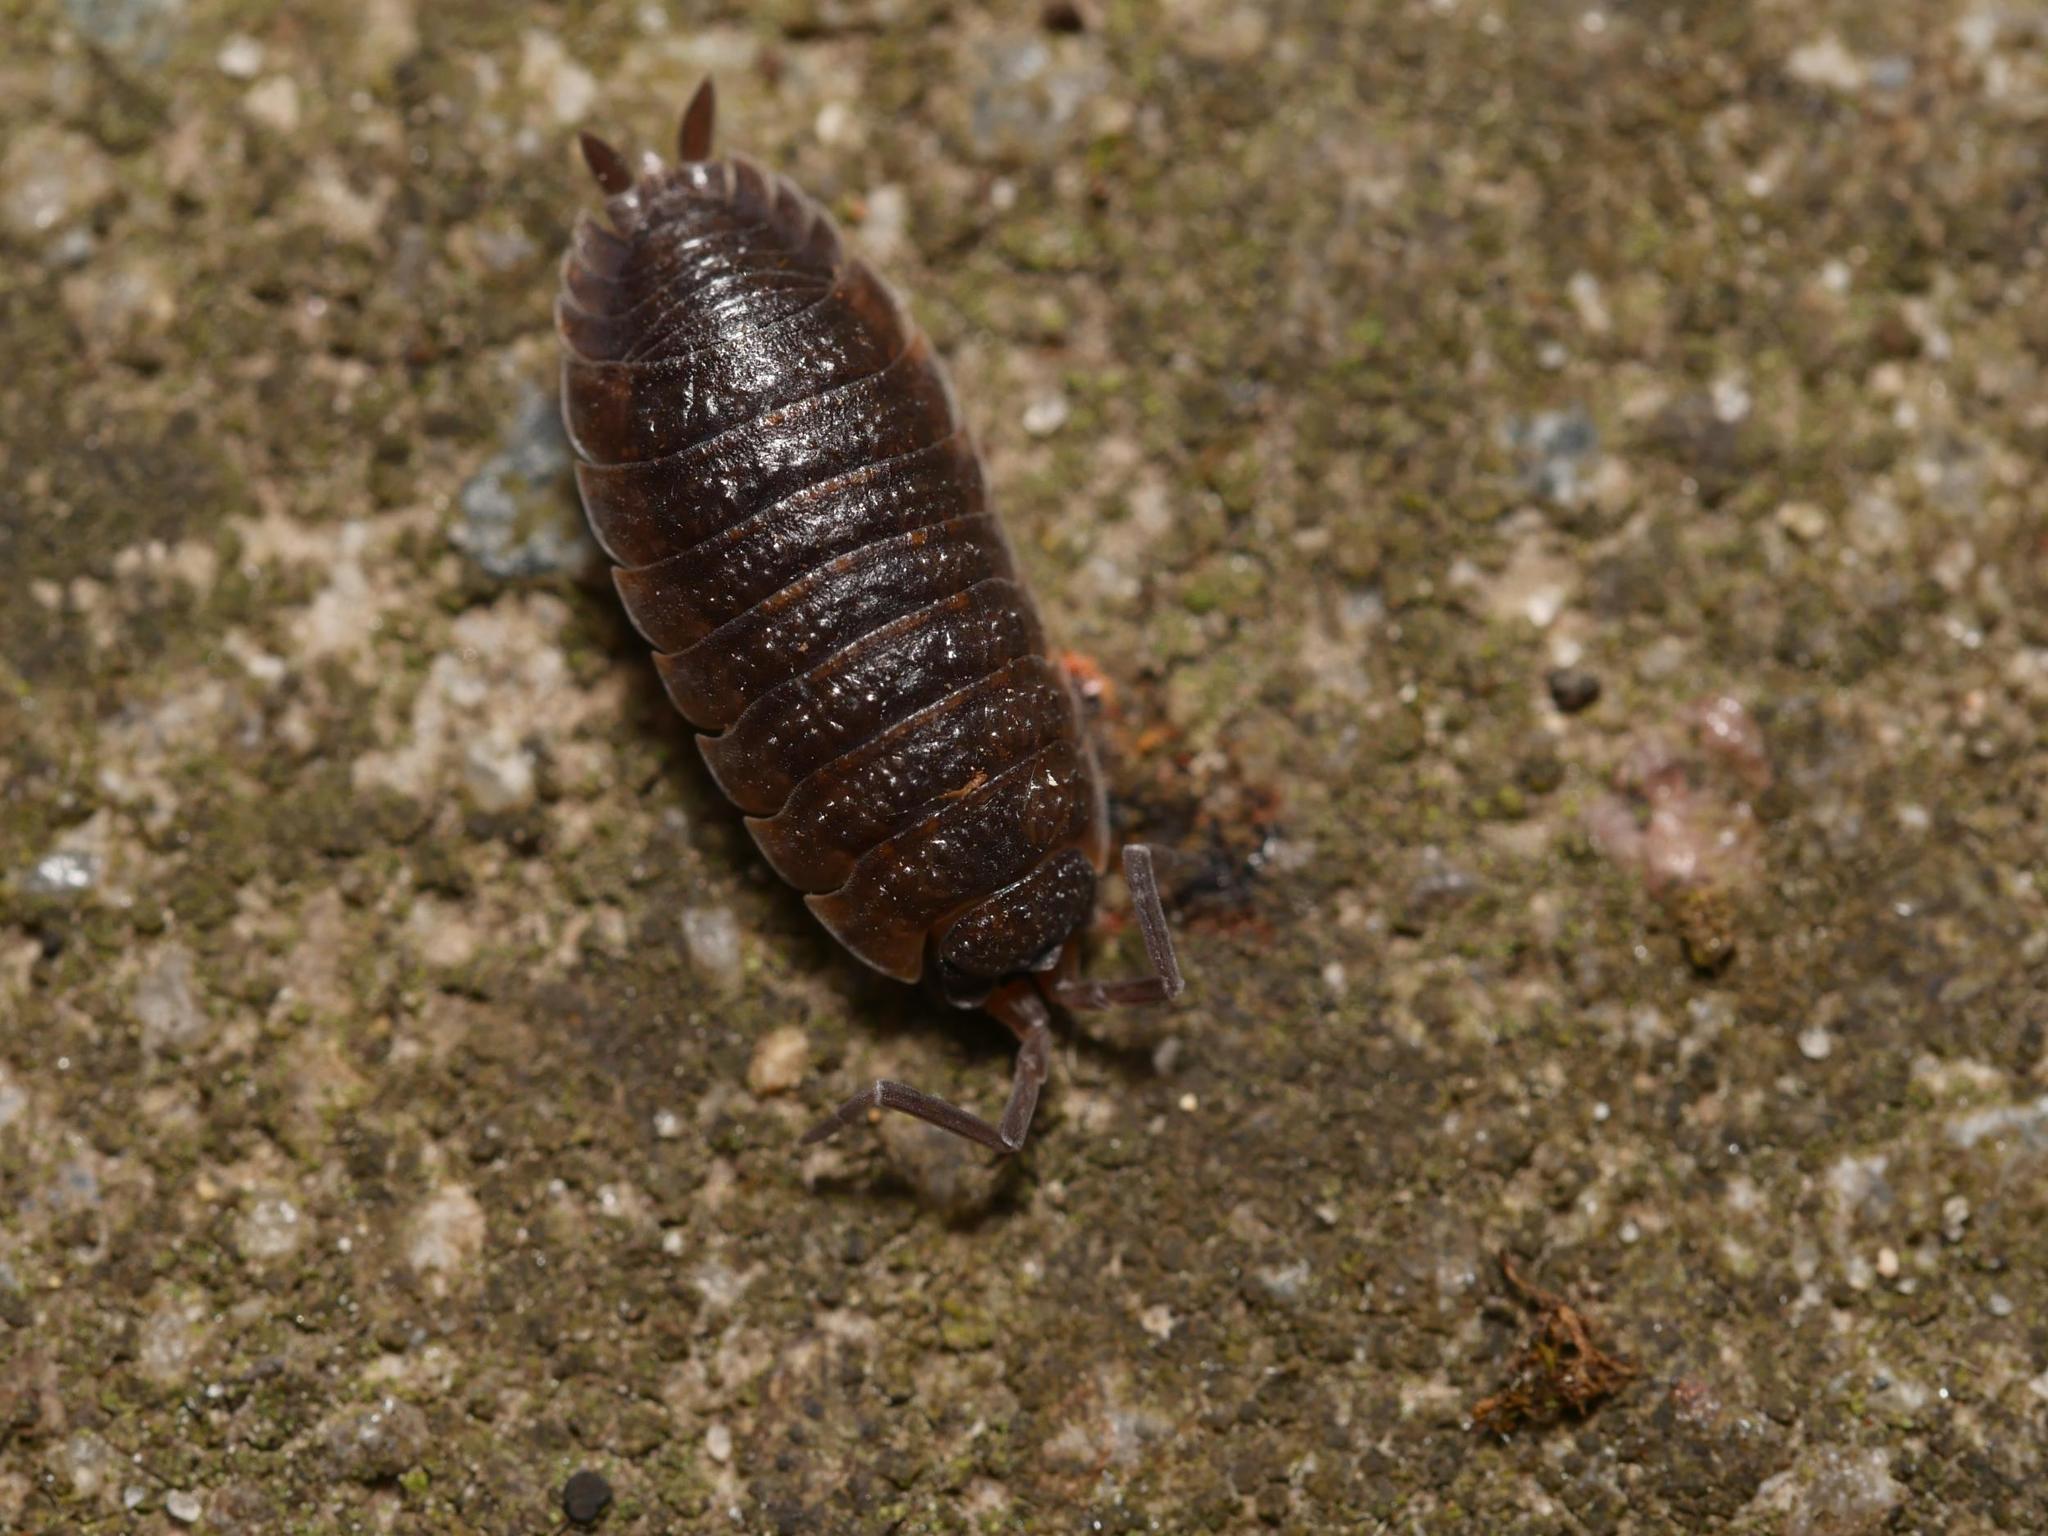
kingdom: Animalia
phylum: Arthropoda
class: Malacostraca
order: Isopoda
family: Porcellionidae
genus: Porcellio
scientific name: Porcellio scaber
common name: Common rough woodlouse
